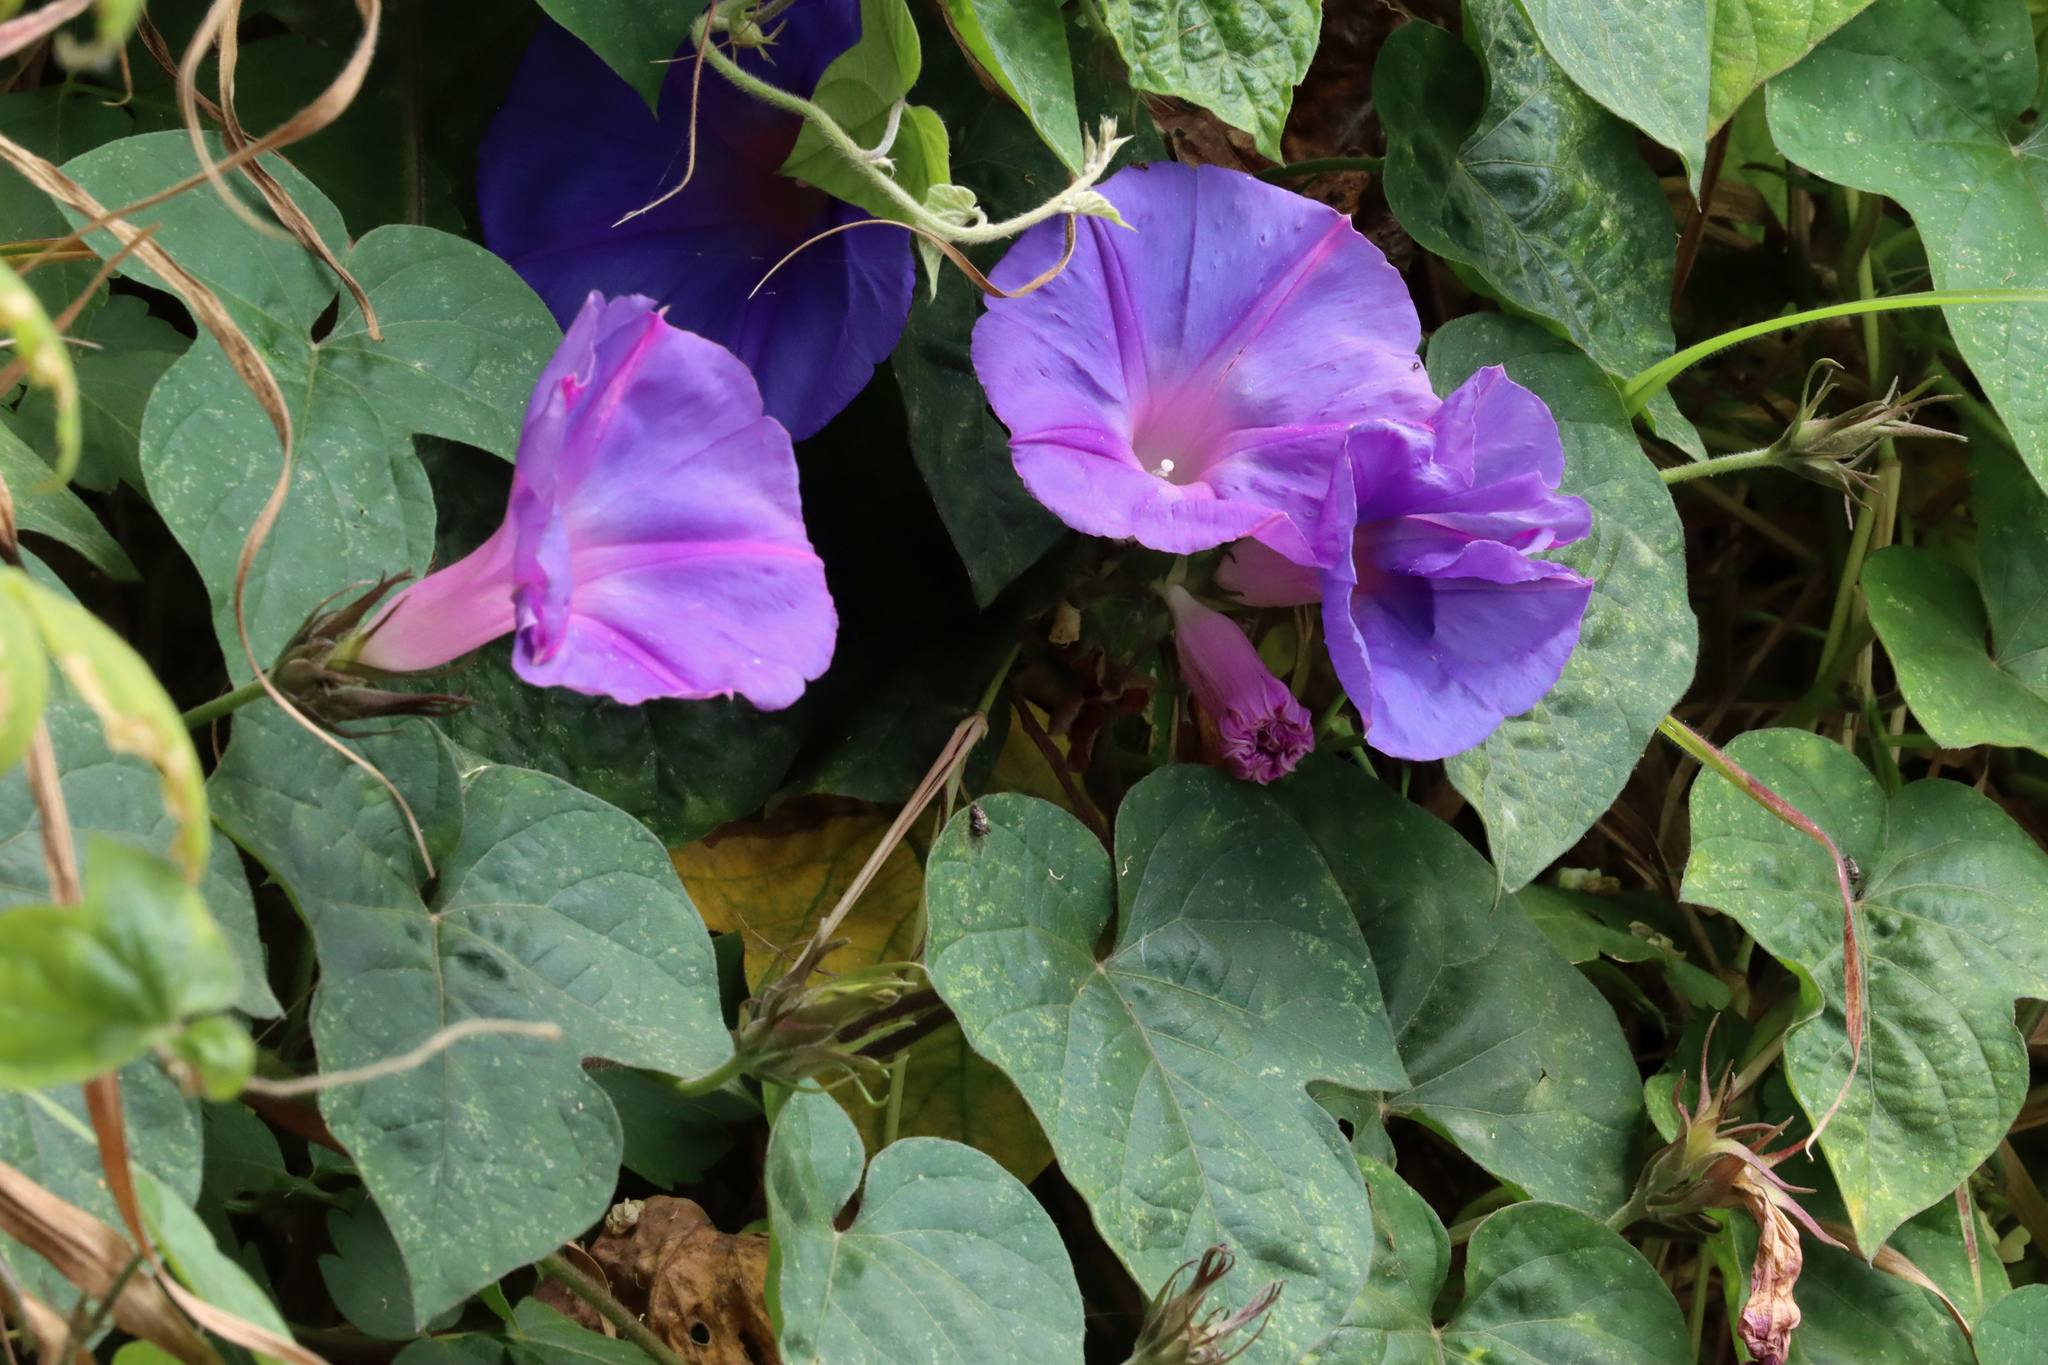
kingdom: Plantae
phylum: Tracheophyta
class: Magnoliopsida
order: Solanales
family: Convolvulaceae
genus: Ipomoea
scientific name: Ipomoea indica
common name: Blue dawnflower
